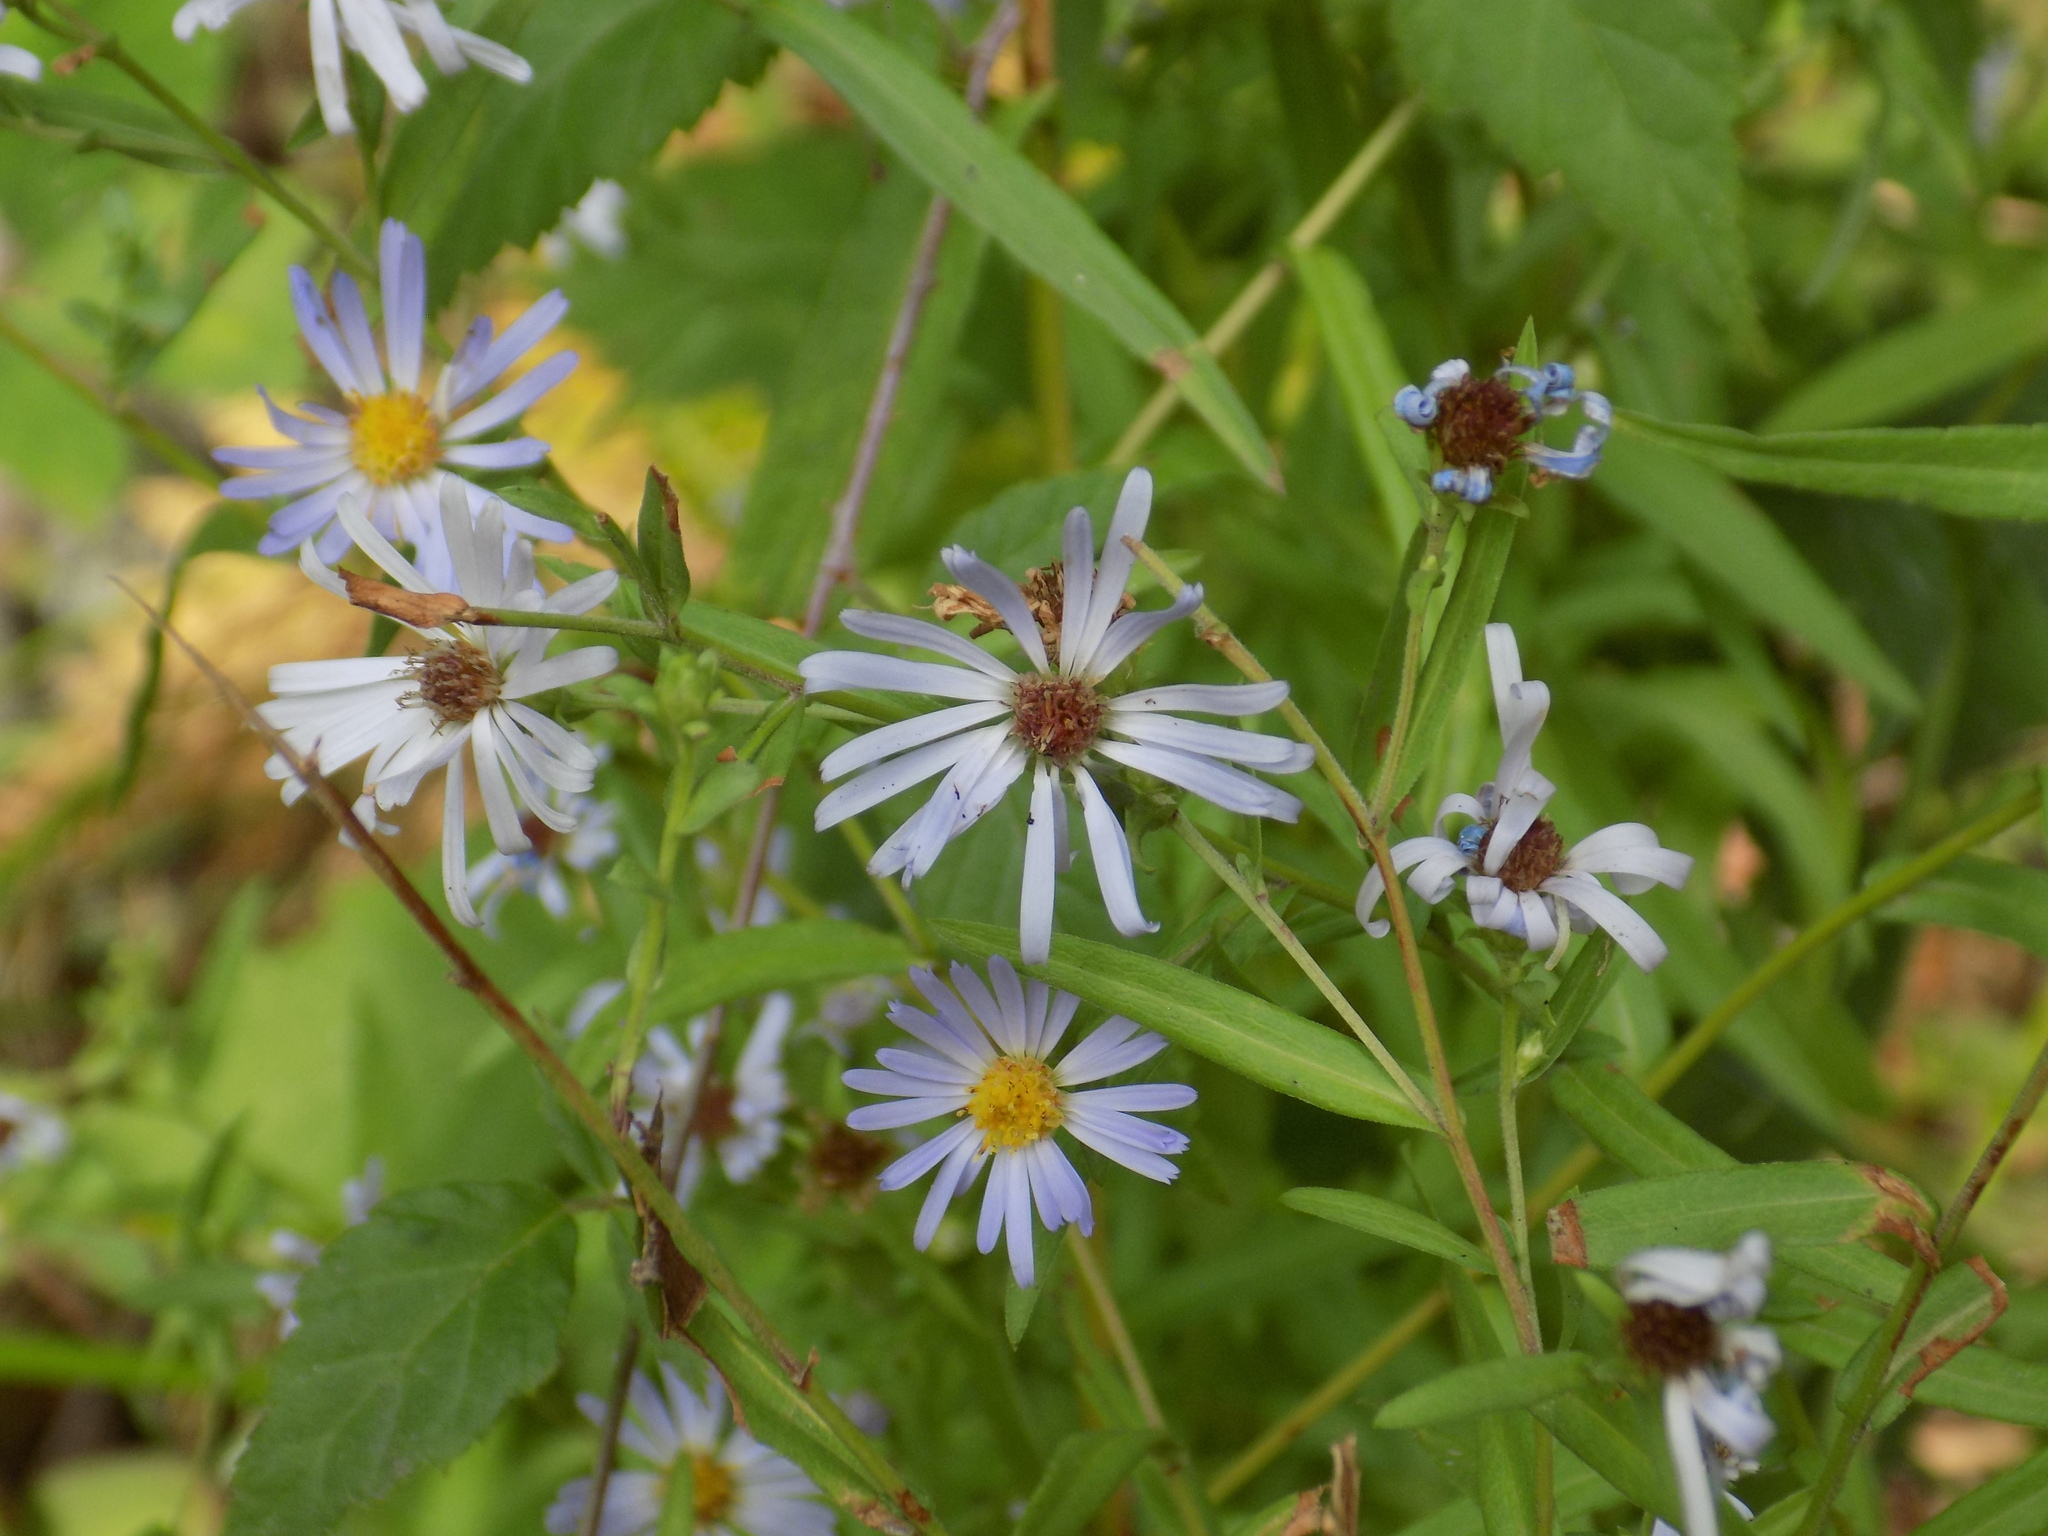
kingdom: Plantae
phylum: Tracheophyta
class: Magnoliopsida
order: Asterales
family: Asteraceae
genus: Symphyotrichum
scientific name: Symphyotrichum subspicatum
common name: Douglas' aster
